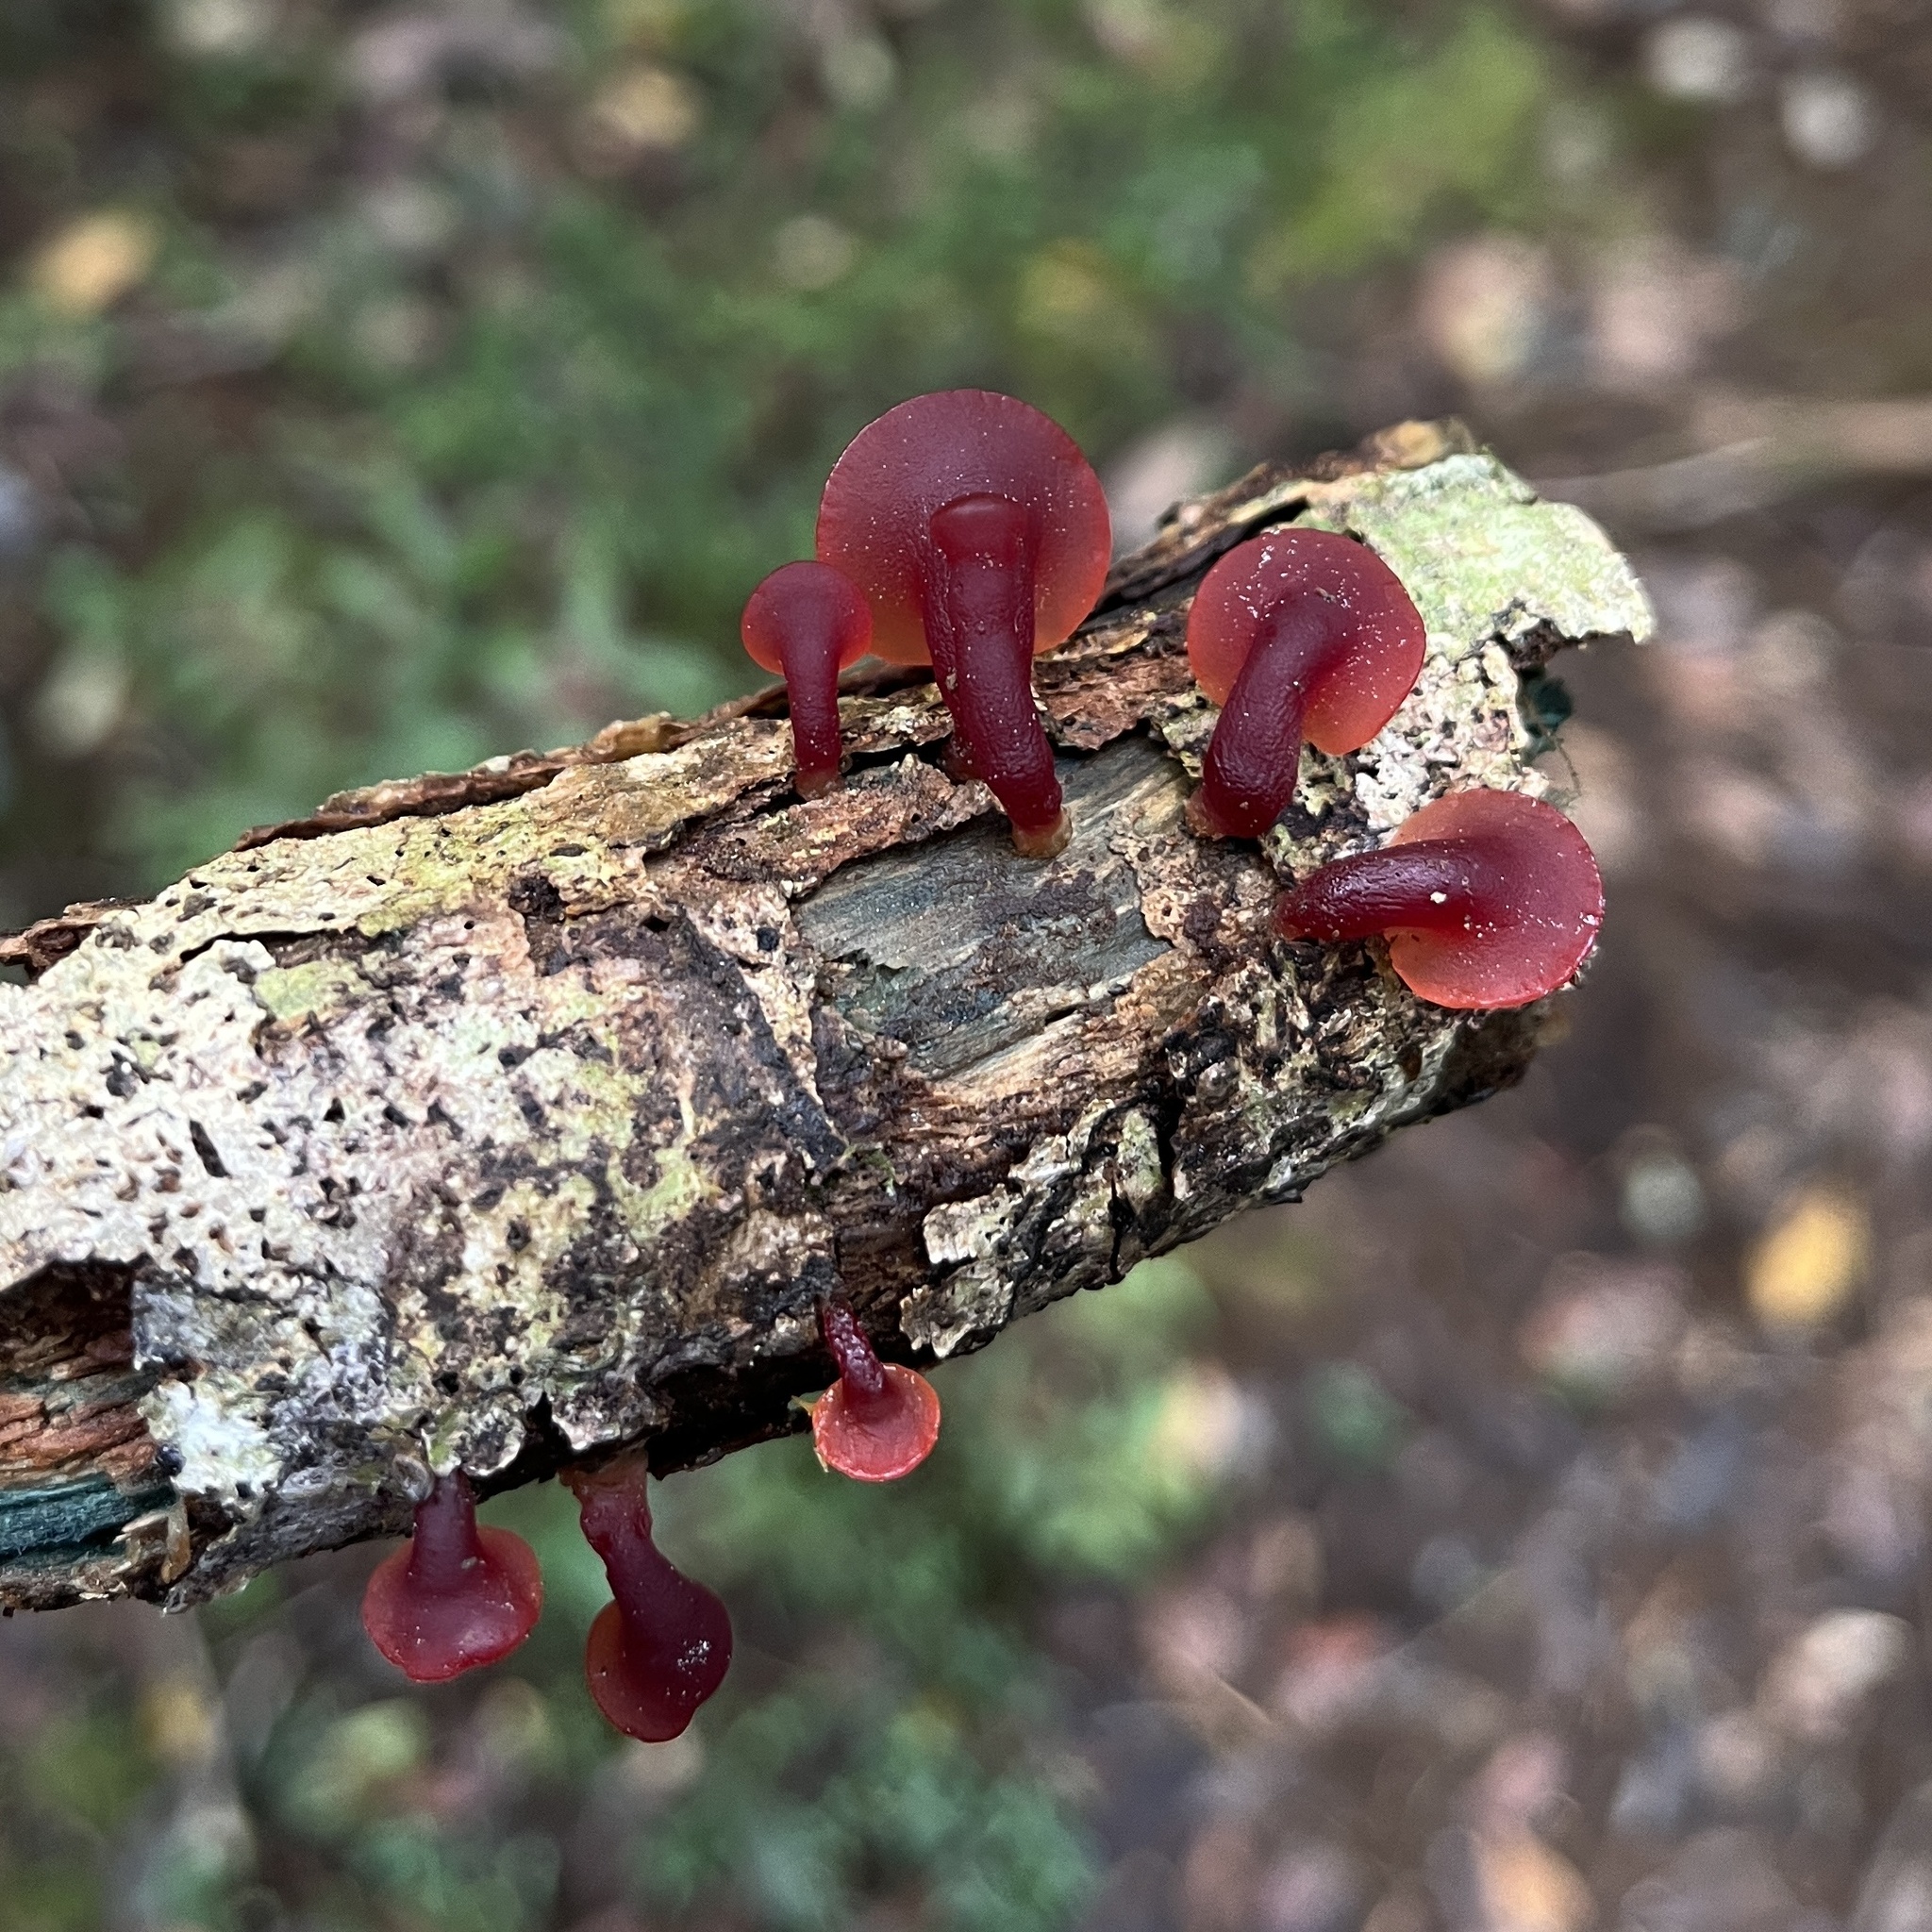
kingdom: Fungi
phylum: Basidiomycota
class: Dacrymycetes
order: Dacrymycetales
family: Dacrymycetaceae
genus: Guepiniopsis
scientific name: Guepiniopsis alpina
